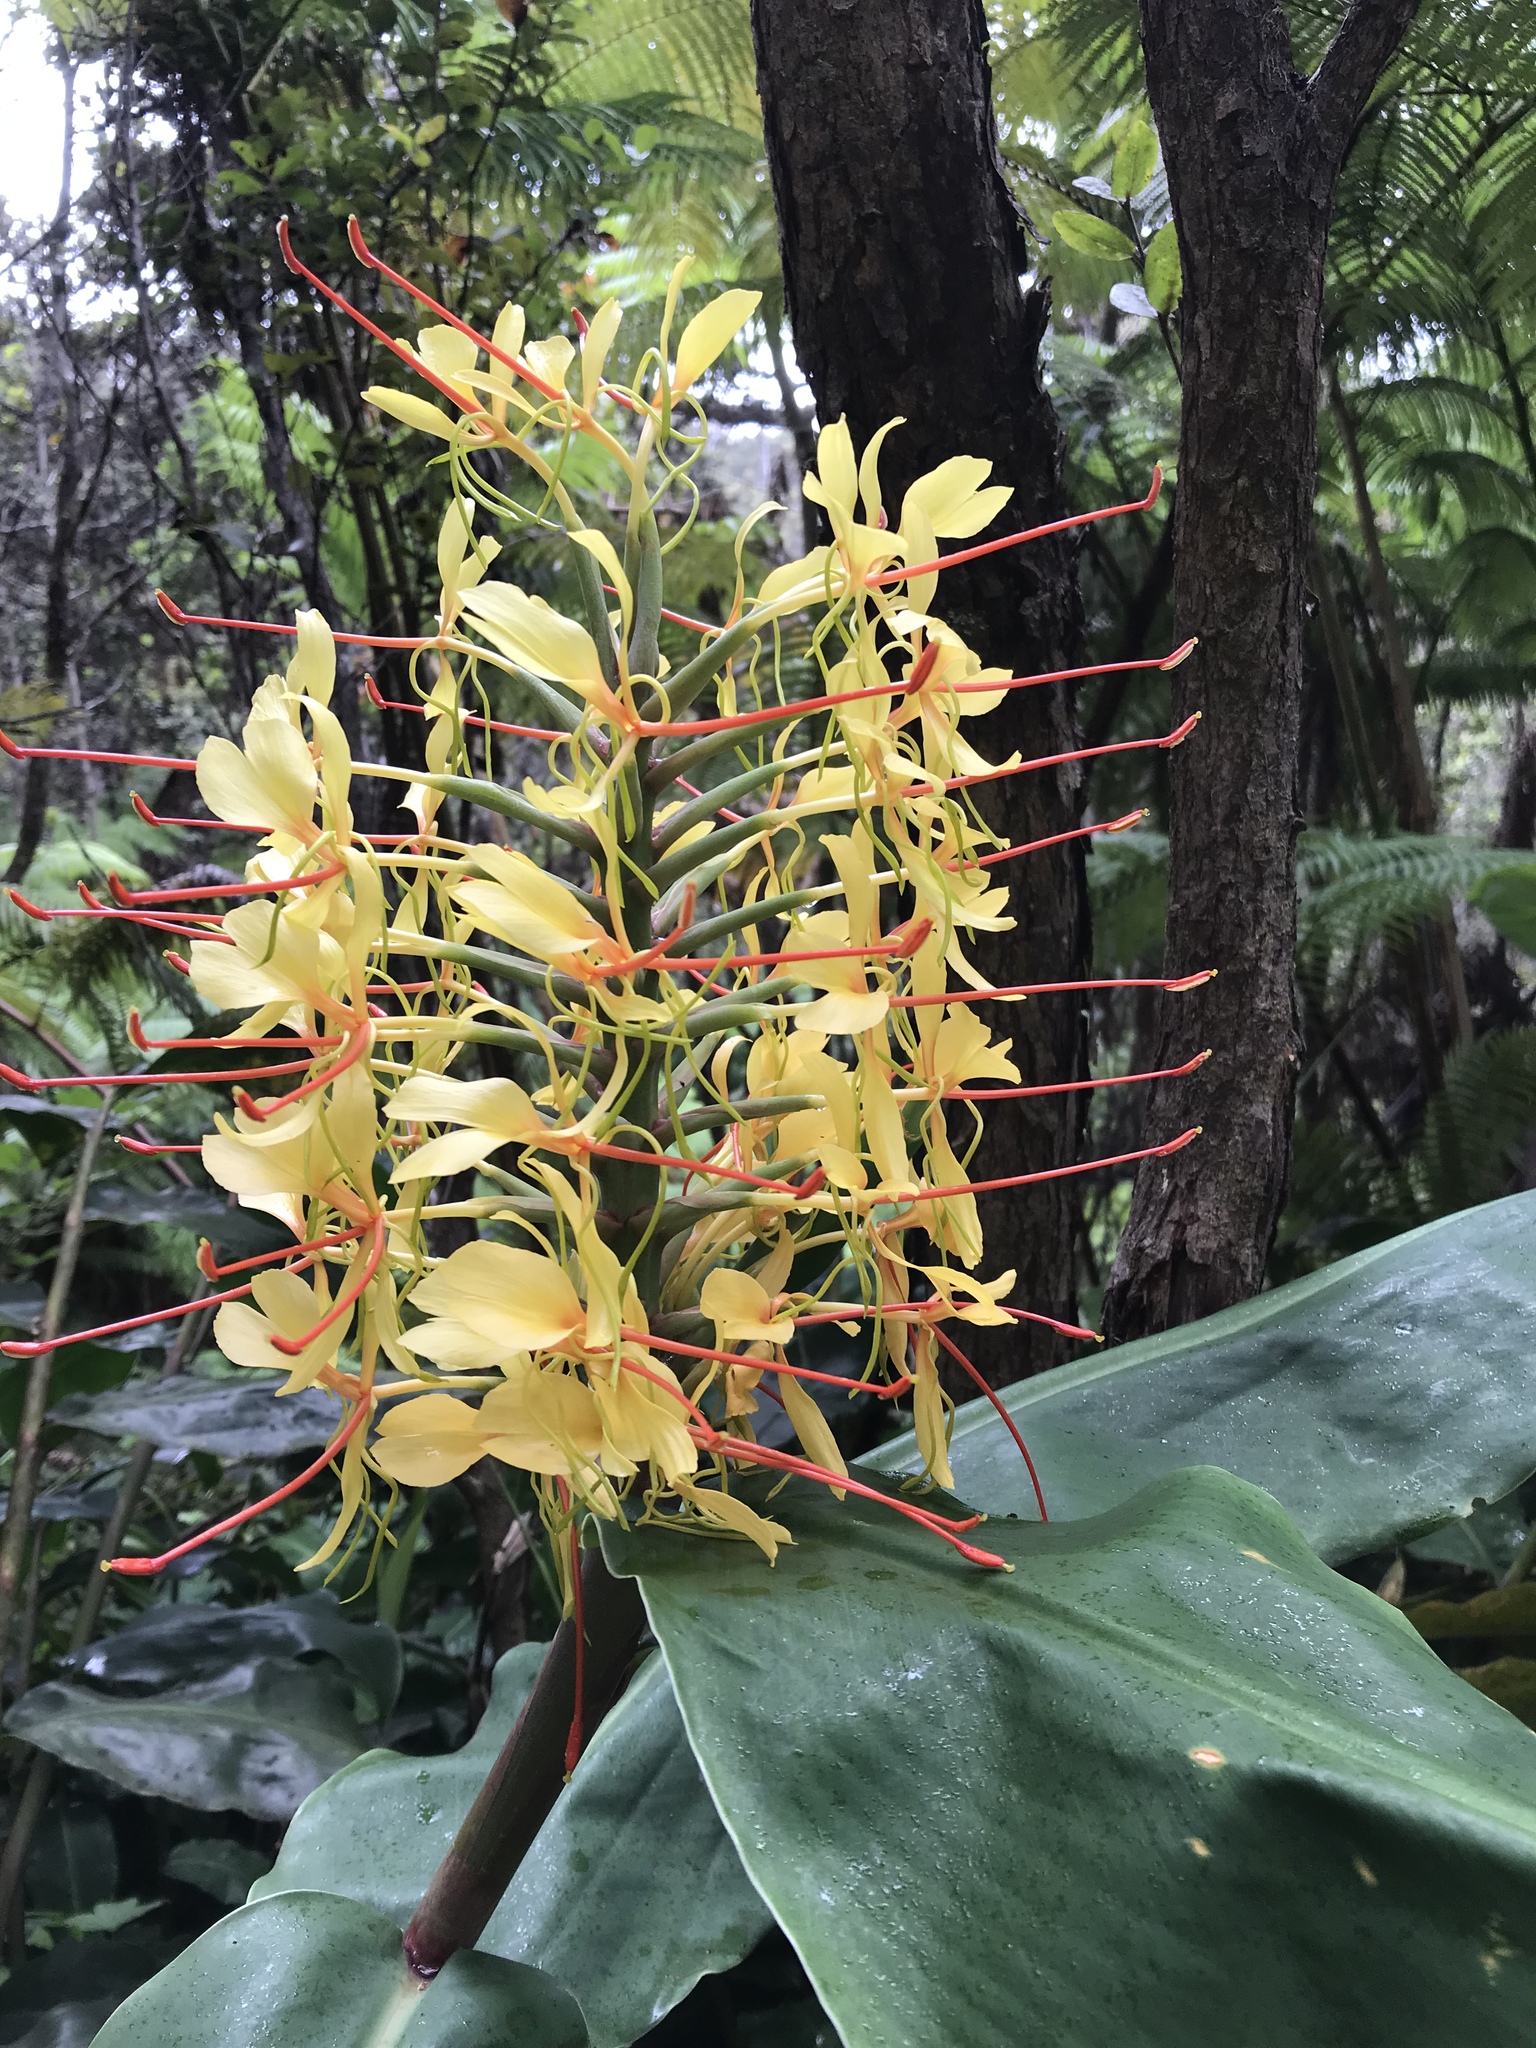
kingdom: Plantae
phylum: Tracheophyta
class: Liliopsida
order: Zingiberales
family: Zingiberaceae
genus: Hedychium
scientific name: Hedychium gardnerianum
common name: Himalayan ginger
